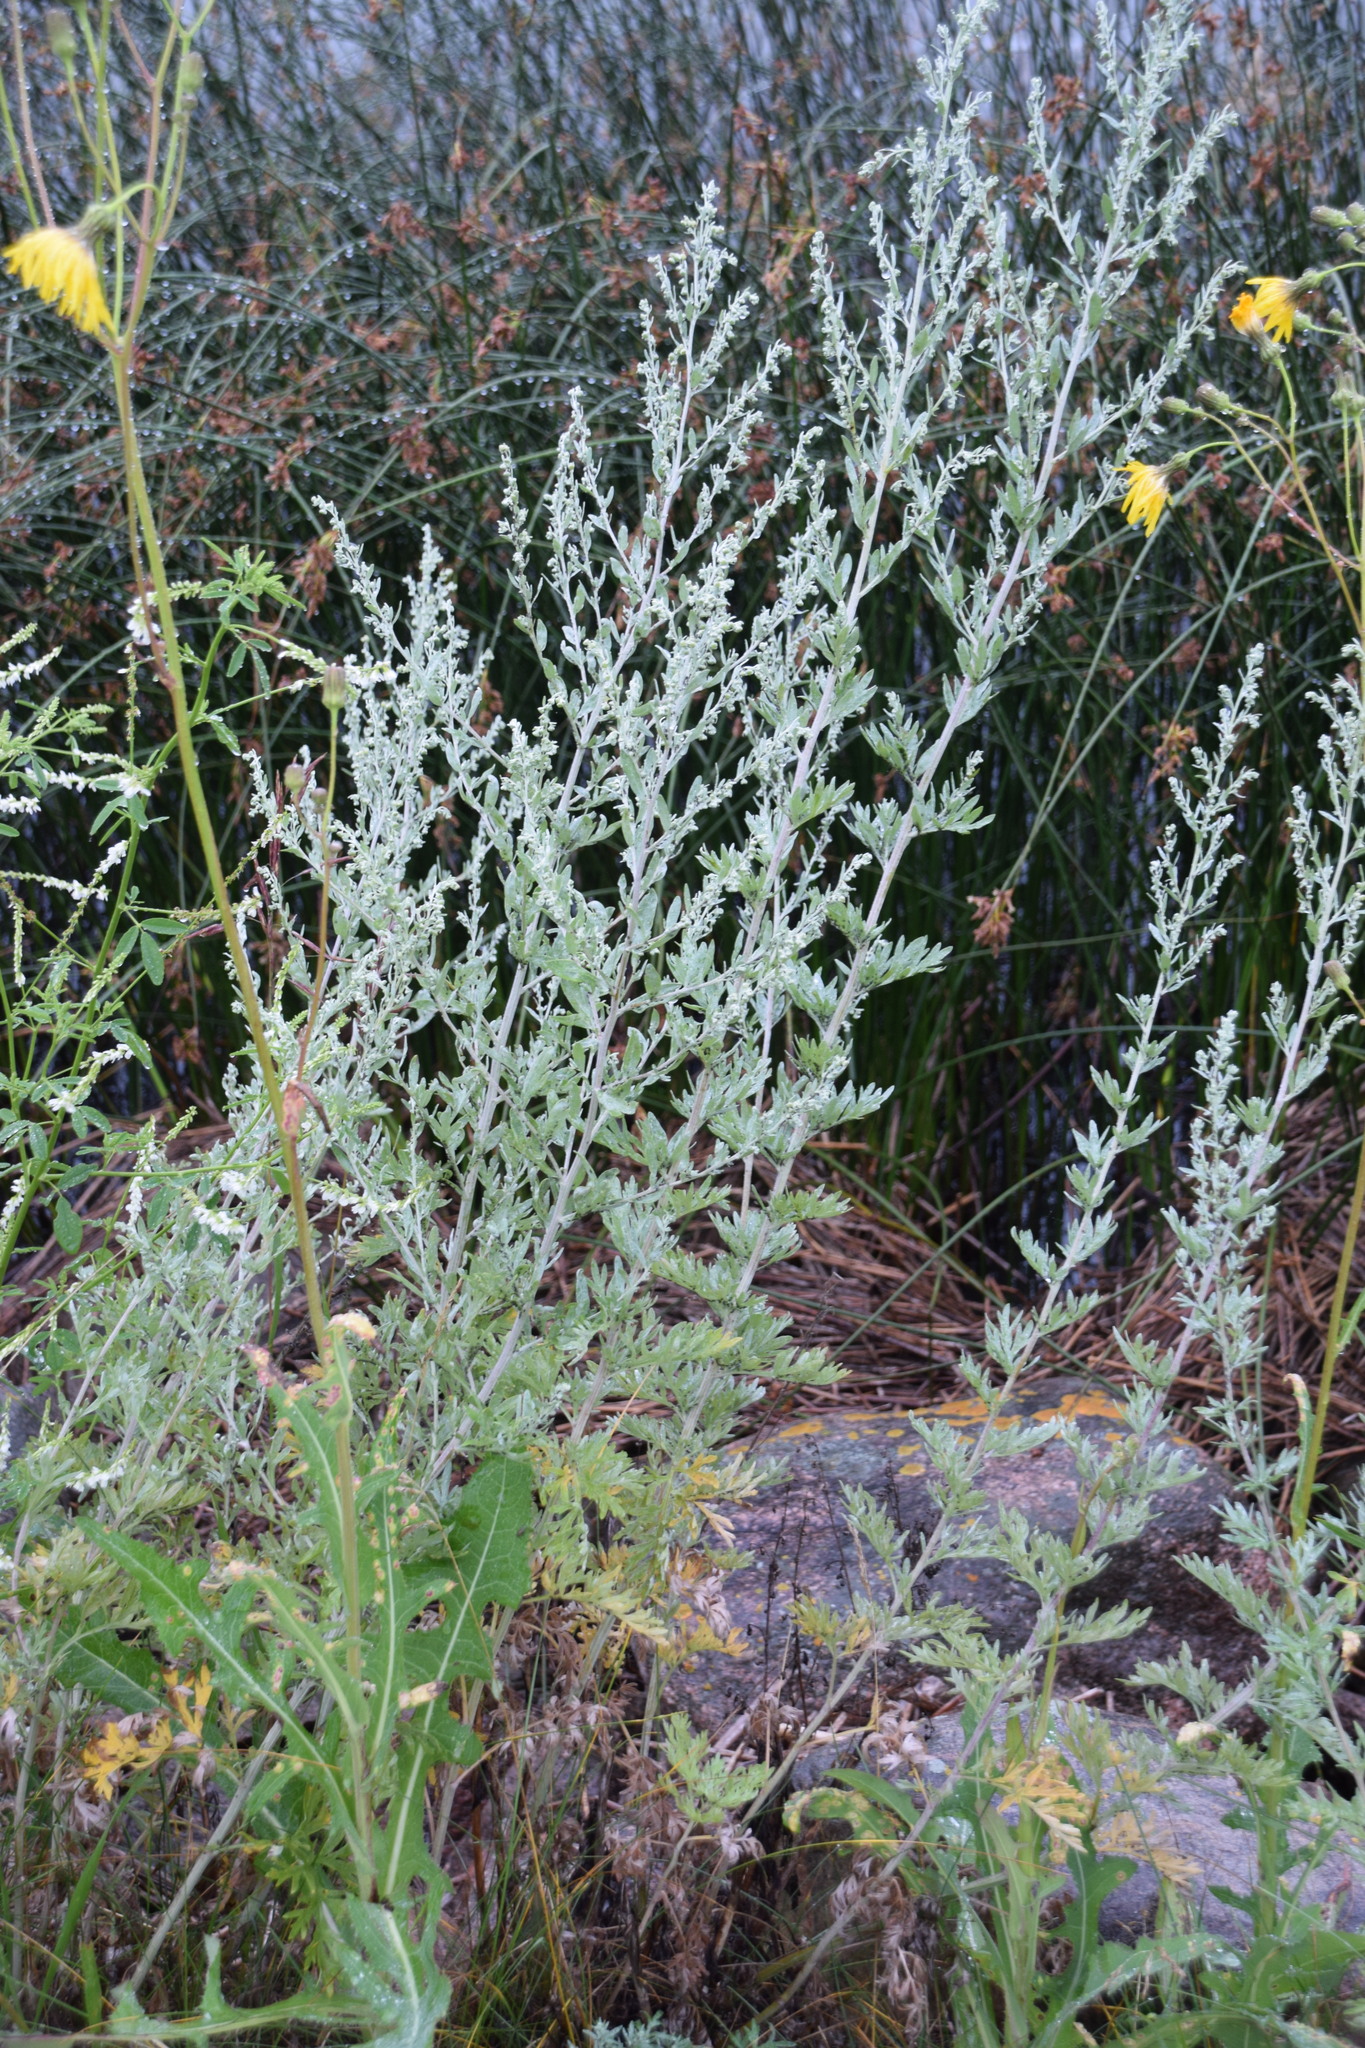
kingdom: Plantae
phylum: Tracheophyta
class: Magnoliopsida
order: Asterales
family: Asteraceae
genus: Artemisia
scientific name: Artemisia absinthium
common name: Wormwood
